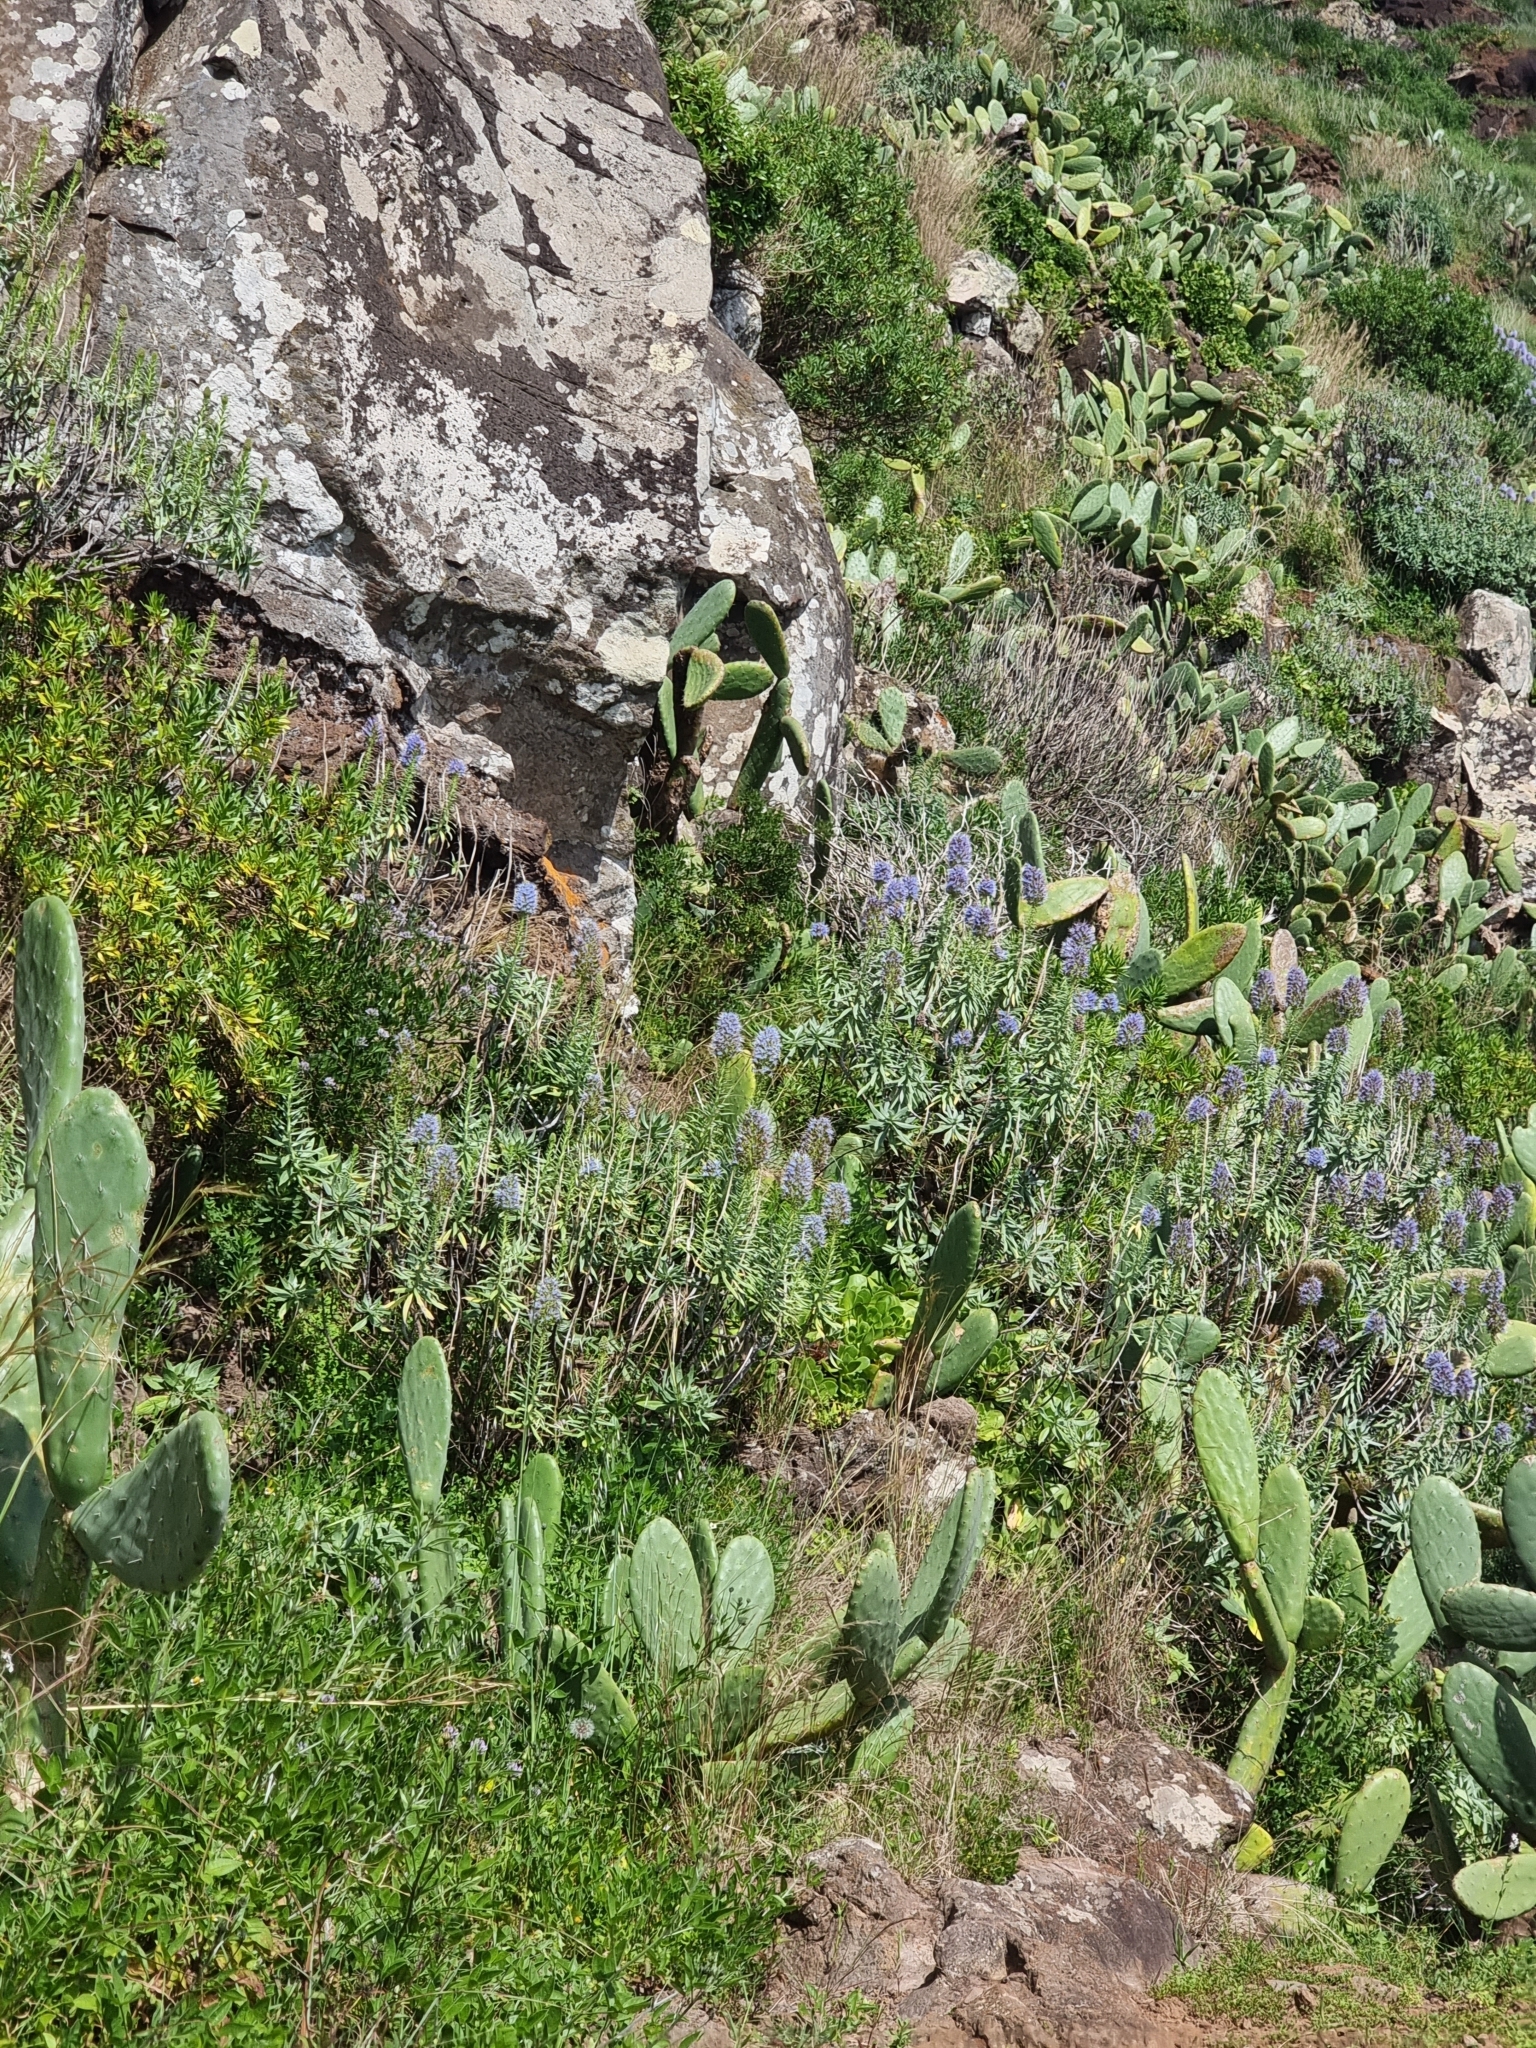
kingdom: Plantae
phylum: Tracheophyta
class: Magnoliopsida
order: Boraginales
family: Boraginaceae
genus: Echium
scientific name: Echium nervosum
